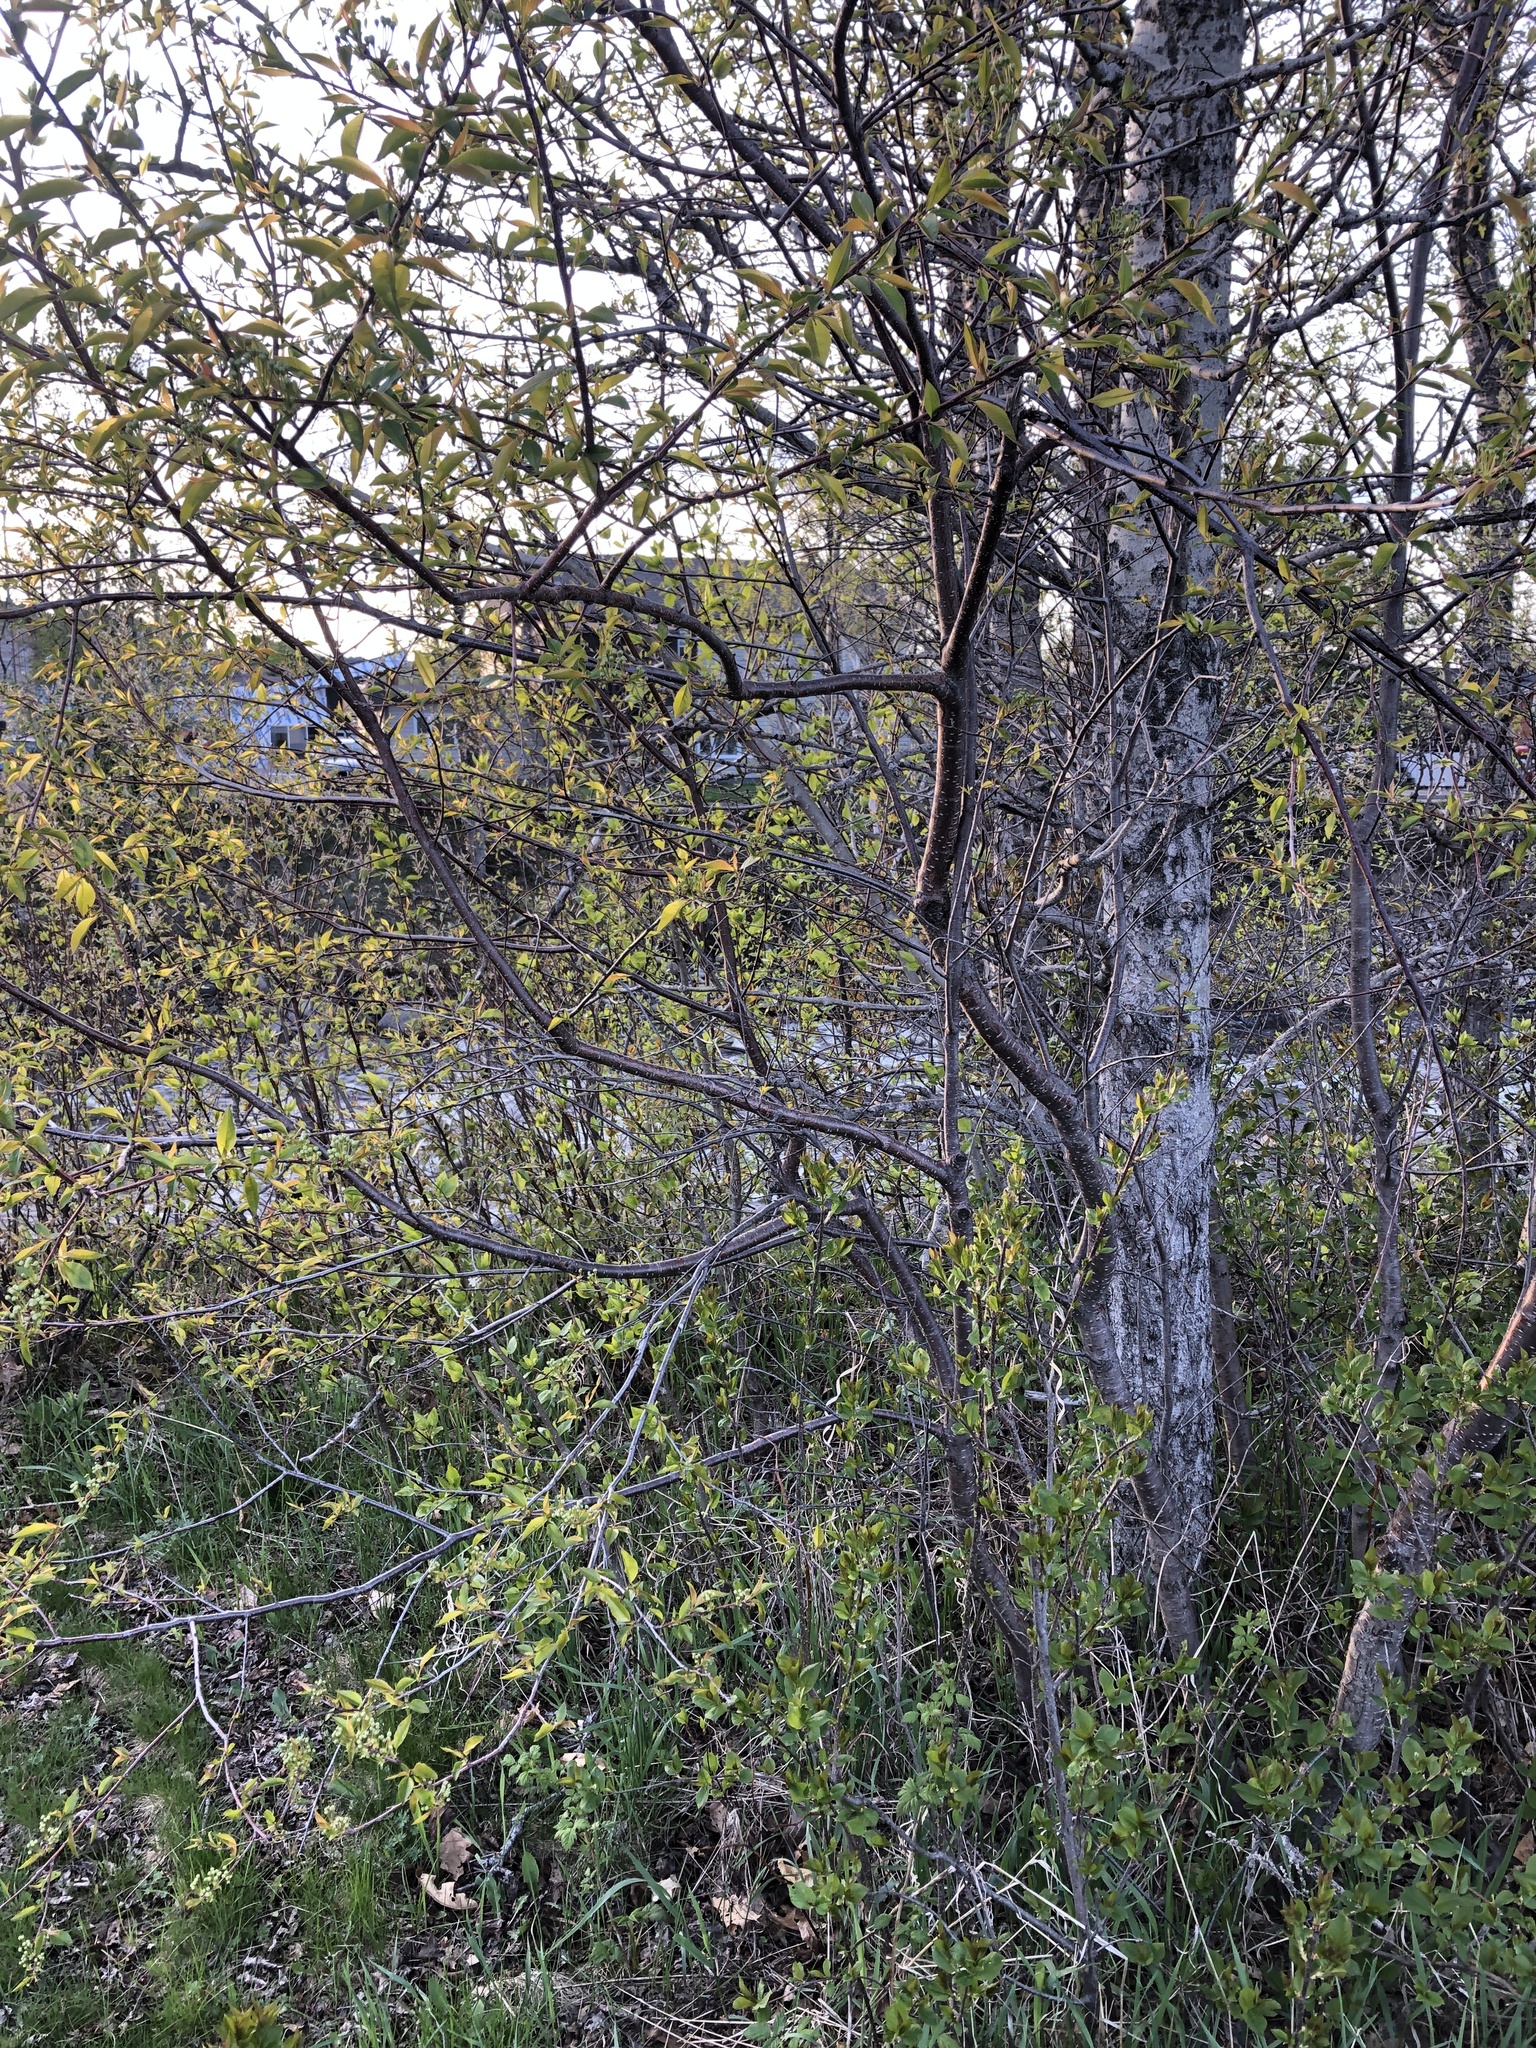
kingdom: Plantae
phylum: Tracheophyta
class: Magnoliopsida
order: Rosales
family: Rosaceae
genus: Prunus
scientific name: Prunus pensylvanica
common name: Pin cherry
